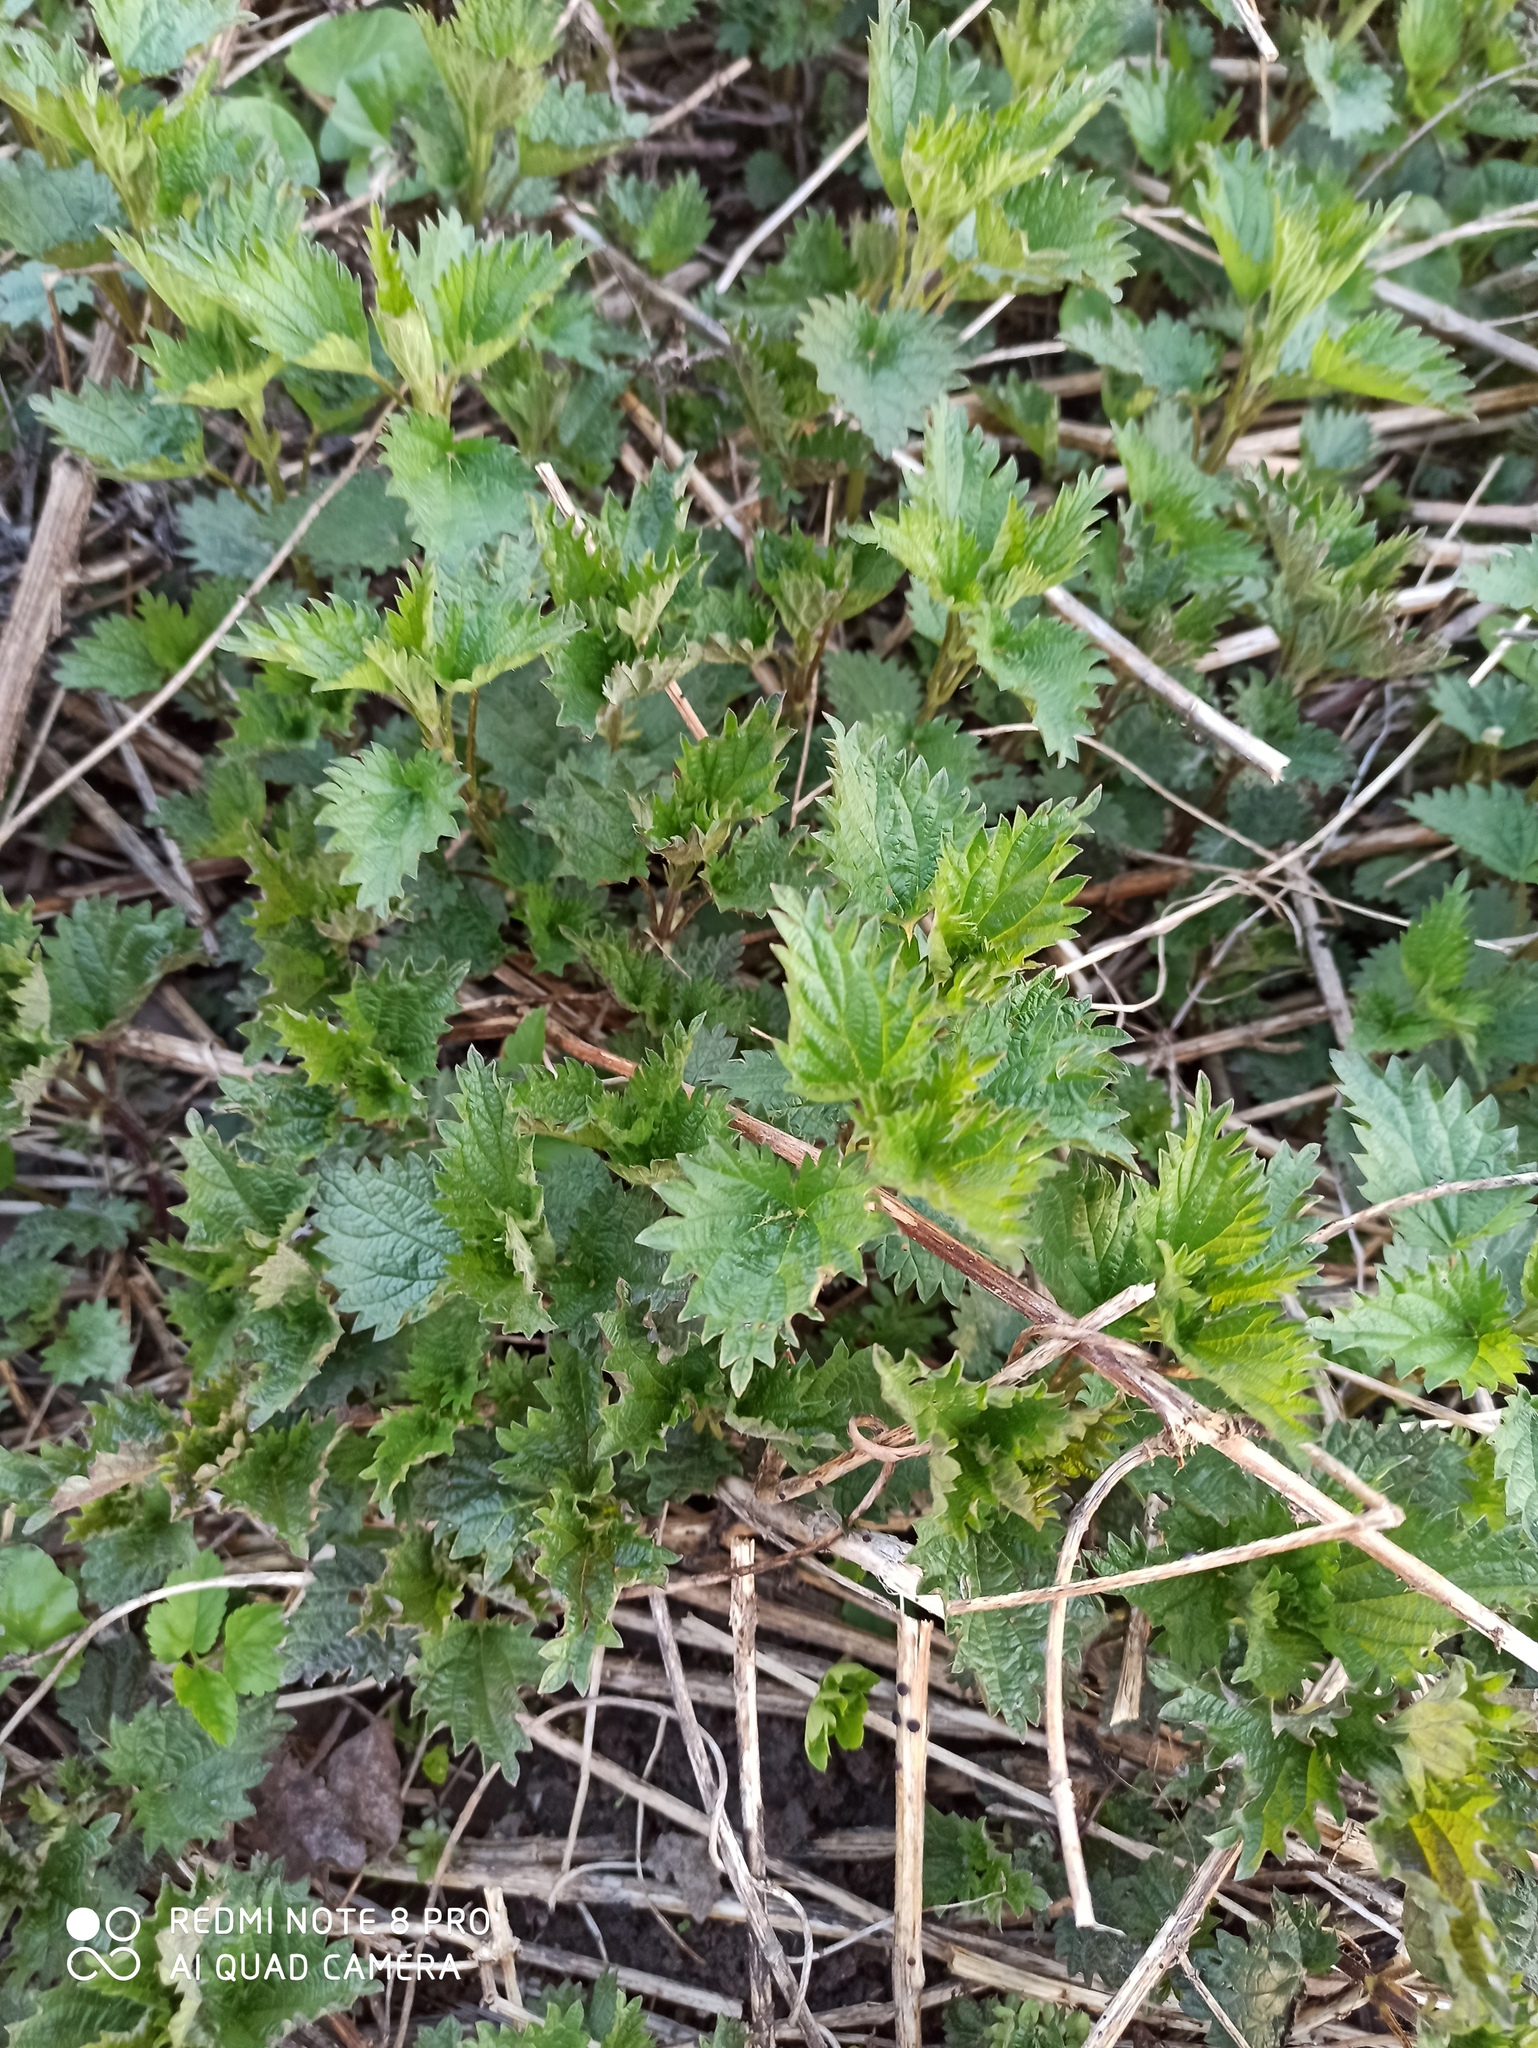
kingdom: Plantae
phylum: Tracheophyta
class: Magnoliopsida
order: Rosales
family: Urticaceae
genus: Urtica
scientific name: Urtica dioica
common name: Common nettle
